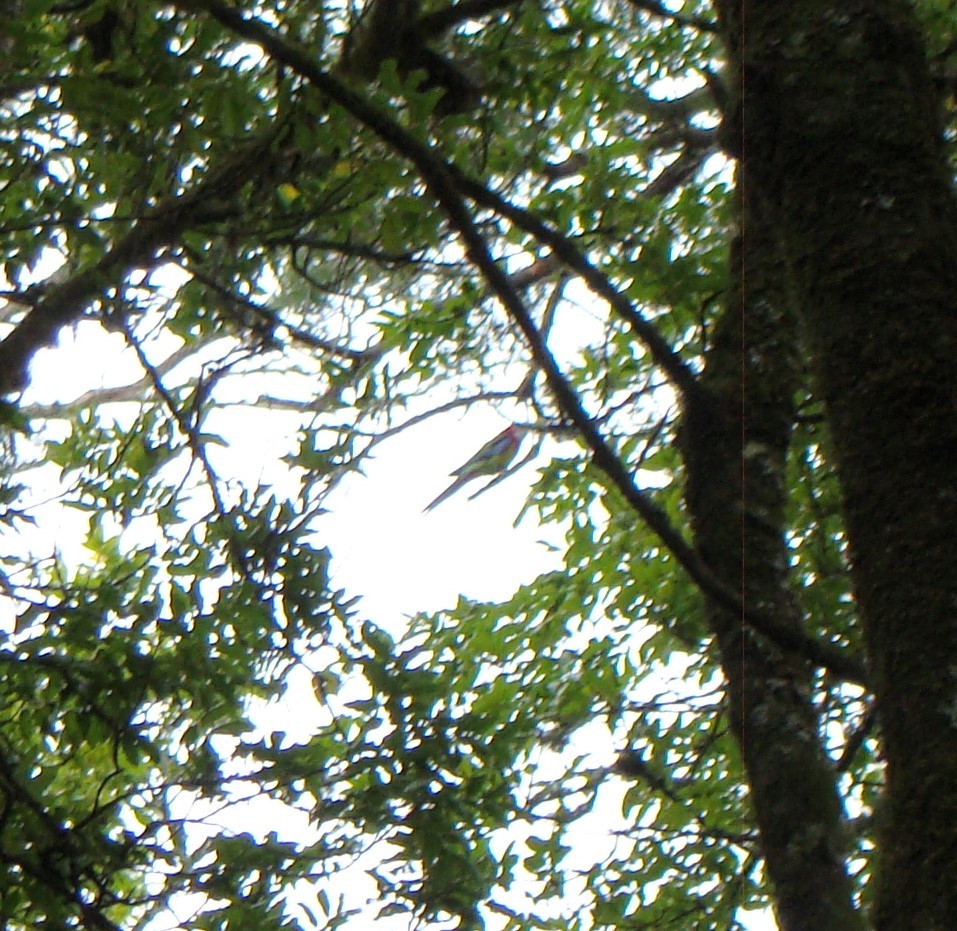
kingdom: Animalia
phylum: Chordata
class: Aves
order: Psittaciformes
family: Psittacidae
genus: Platycercus
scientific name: Platycercus eximius
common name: Eastern rosella
